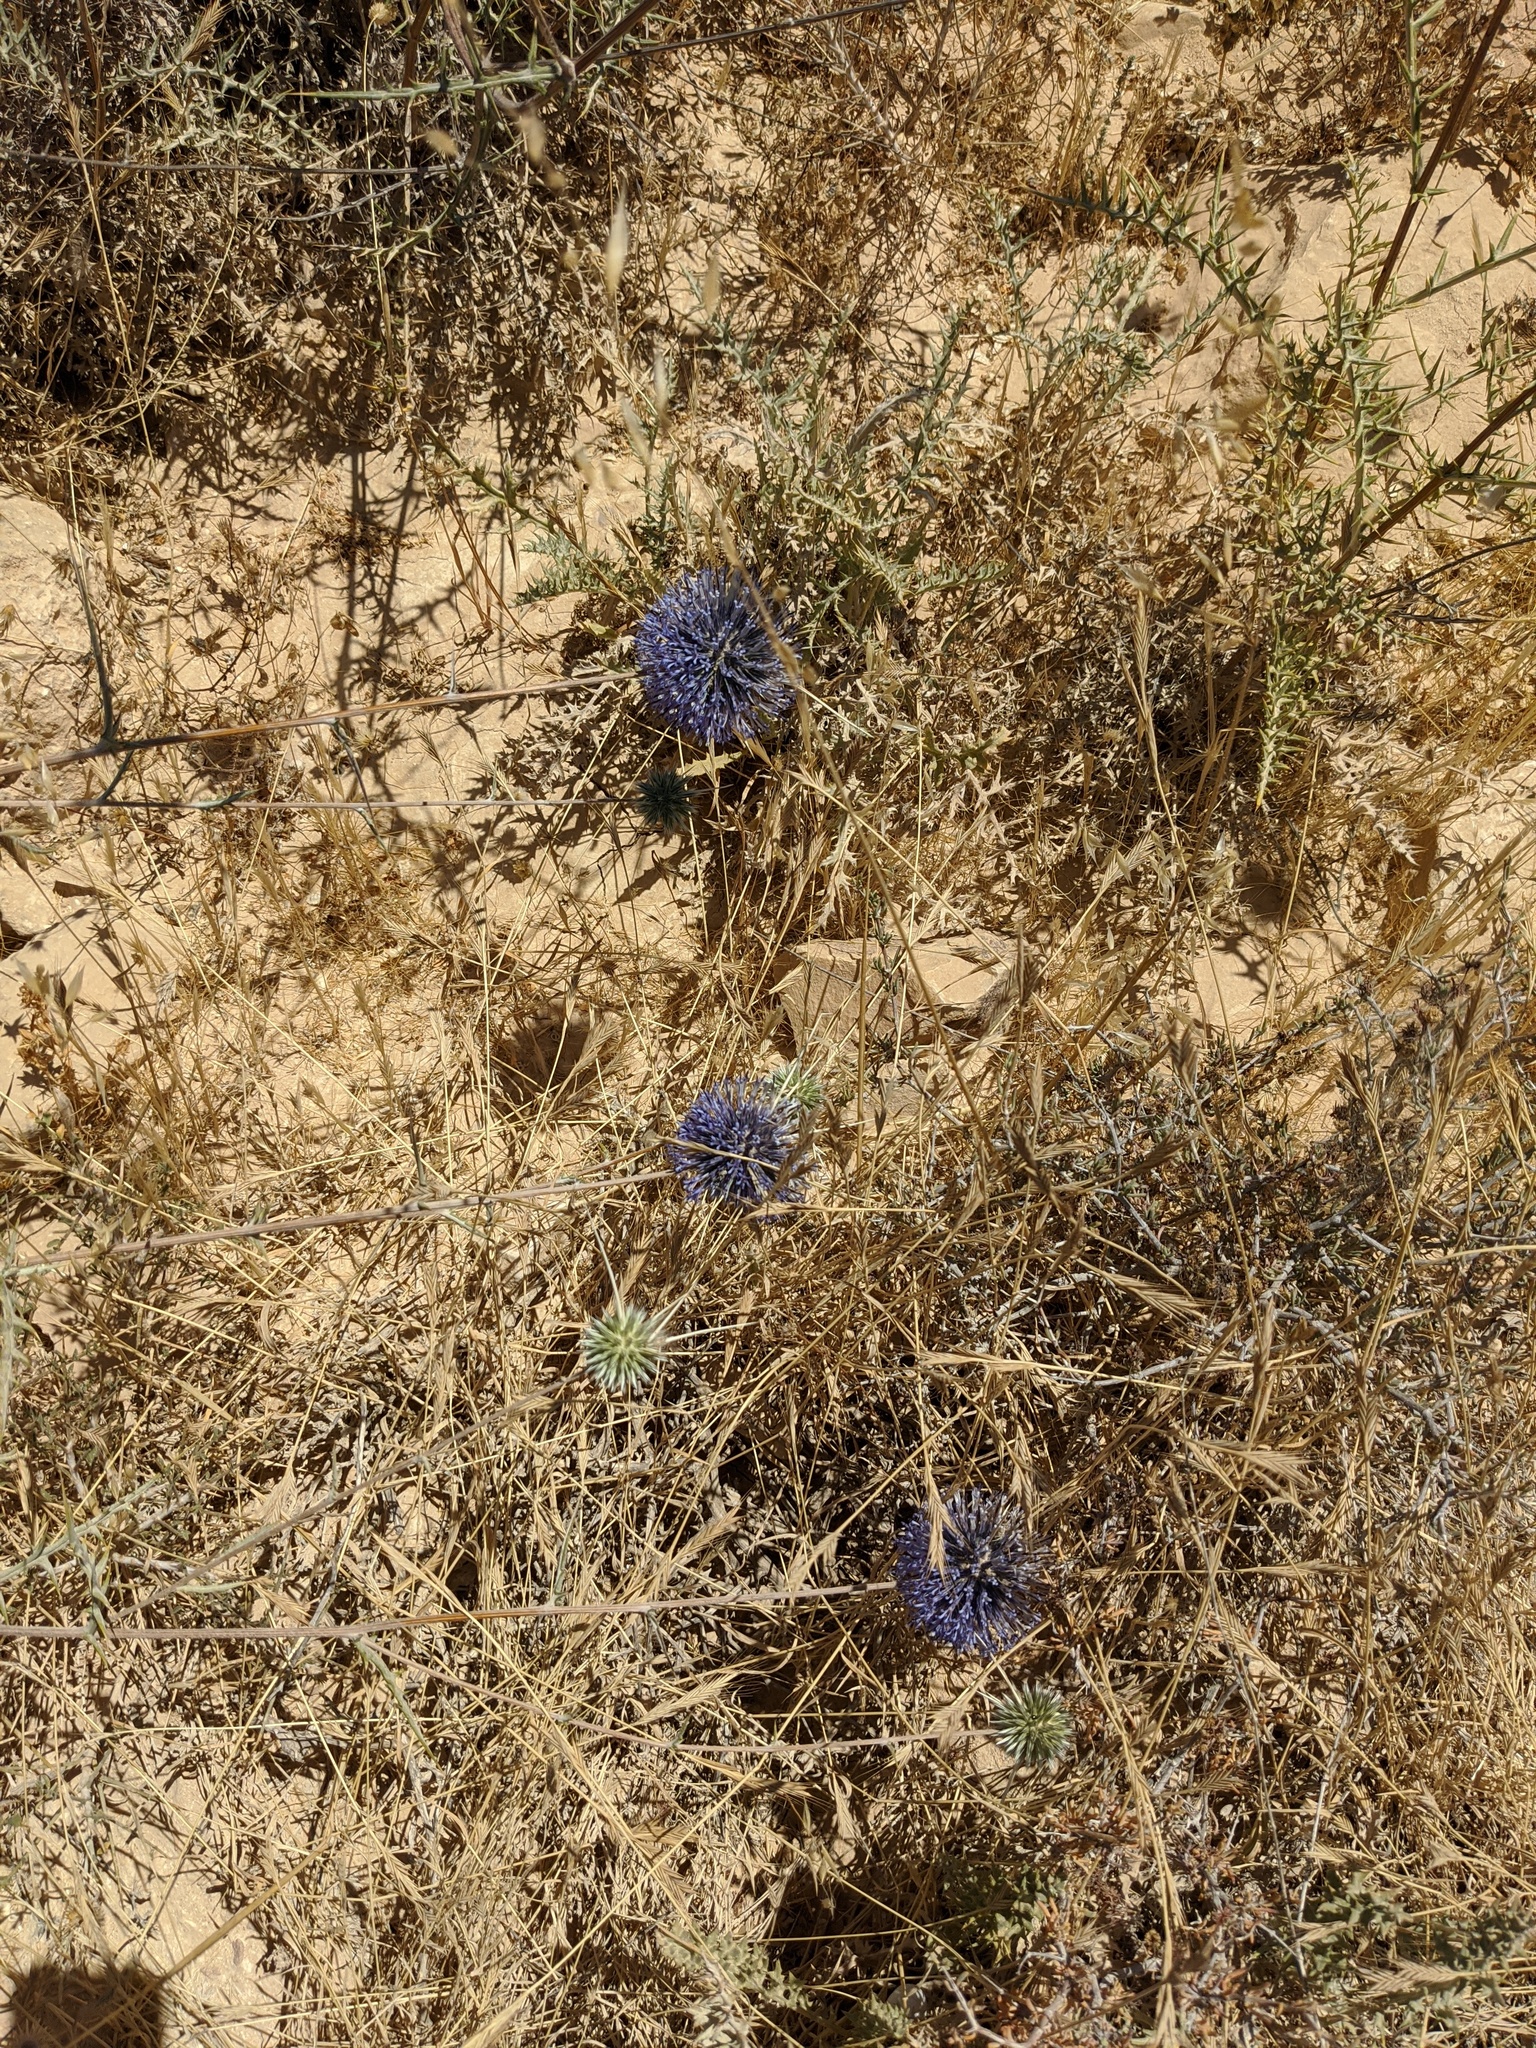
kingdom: Plantae
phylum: Tracheophyta
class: Magnoliopsida
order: Asterales
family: Asteraceae
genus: Echinops
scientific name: Echinops polyceras
